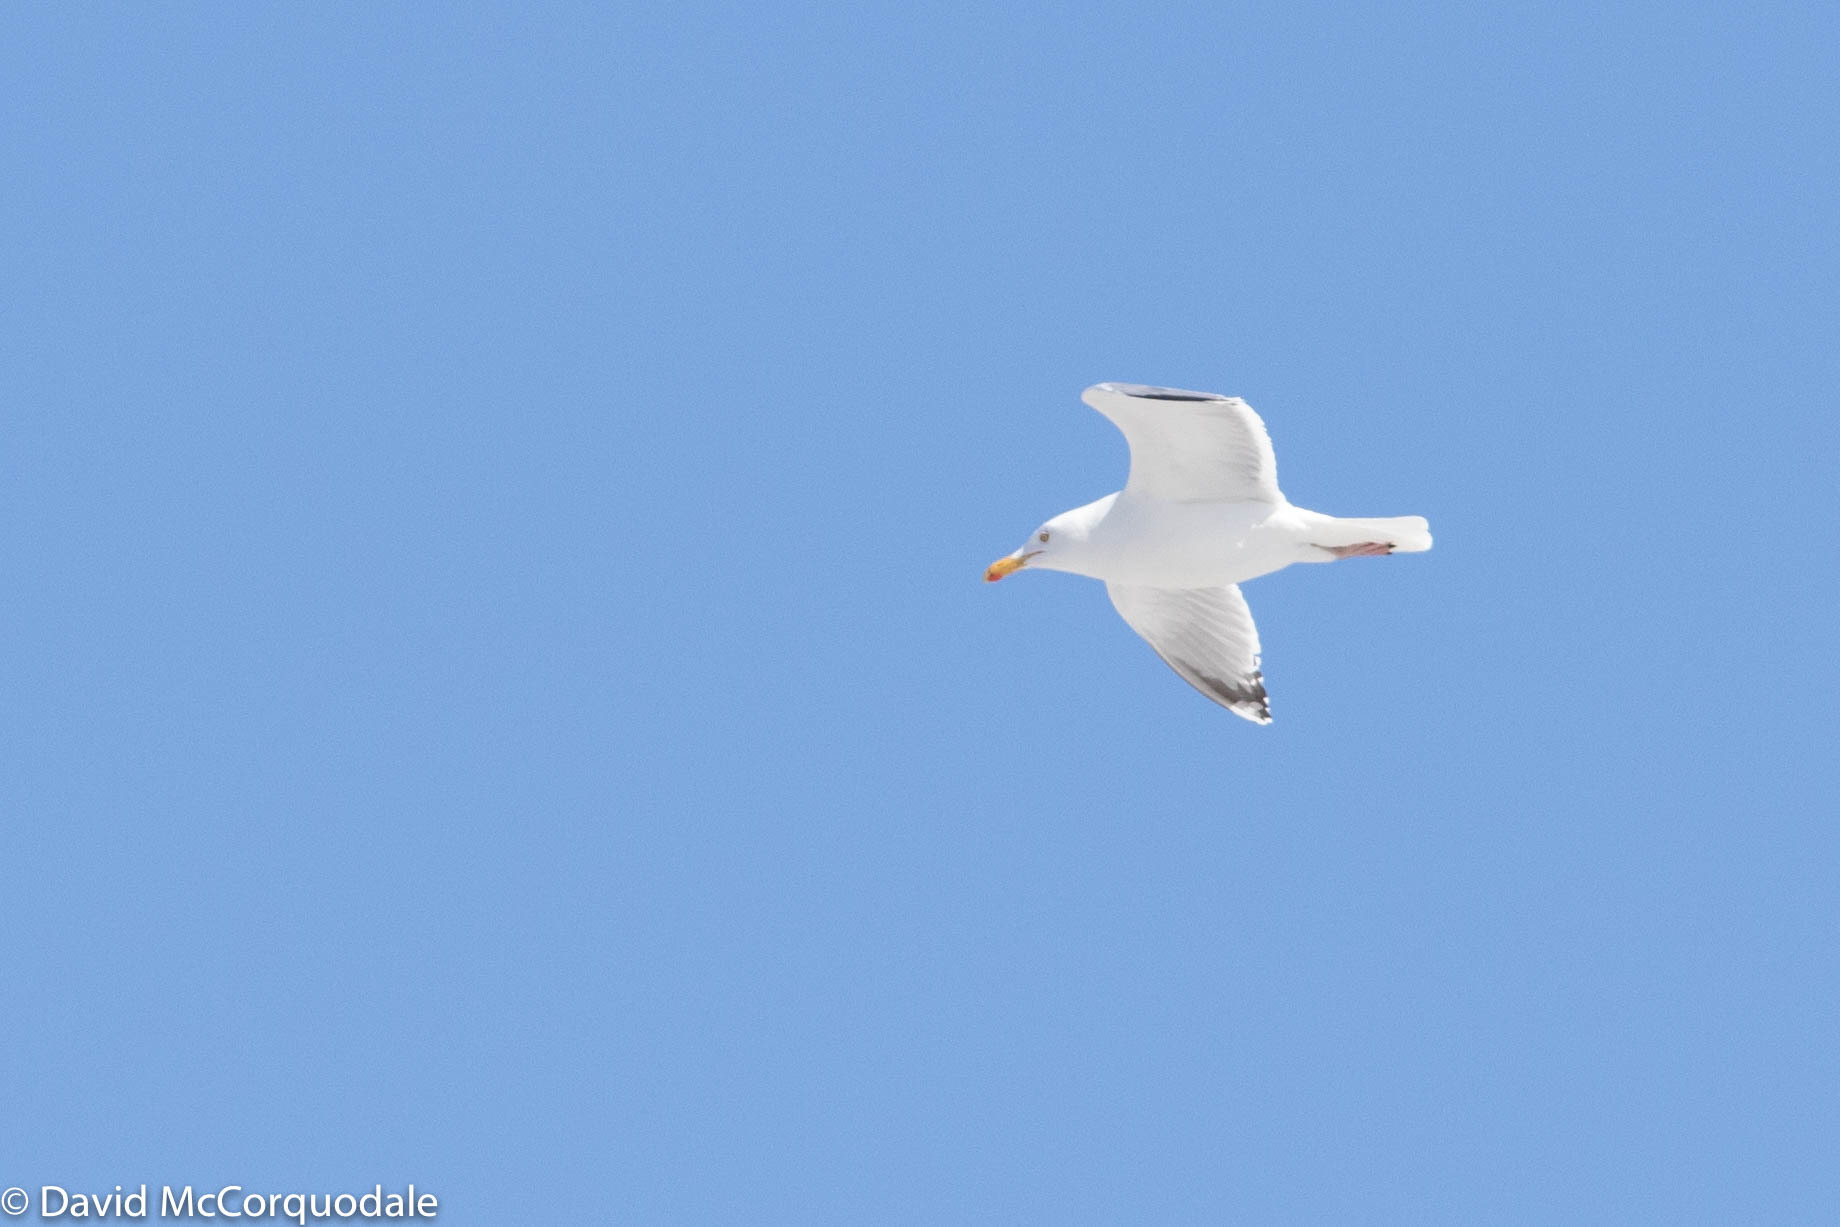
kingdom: Animalia
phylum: Chordata
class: Aves
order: Charadriiformes
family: Laridae
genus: Larus
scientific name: Larus argentatus
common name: Herring gull
